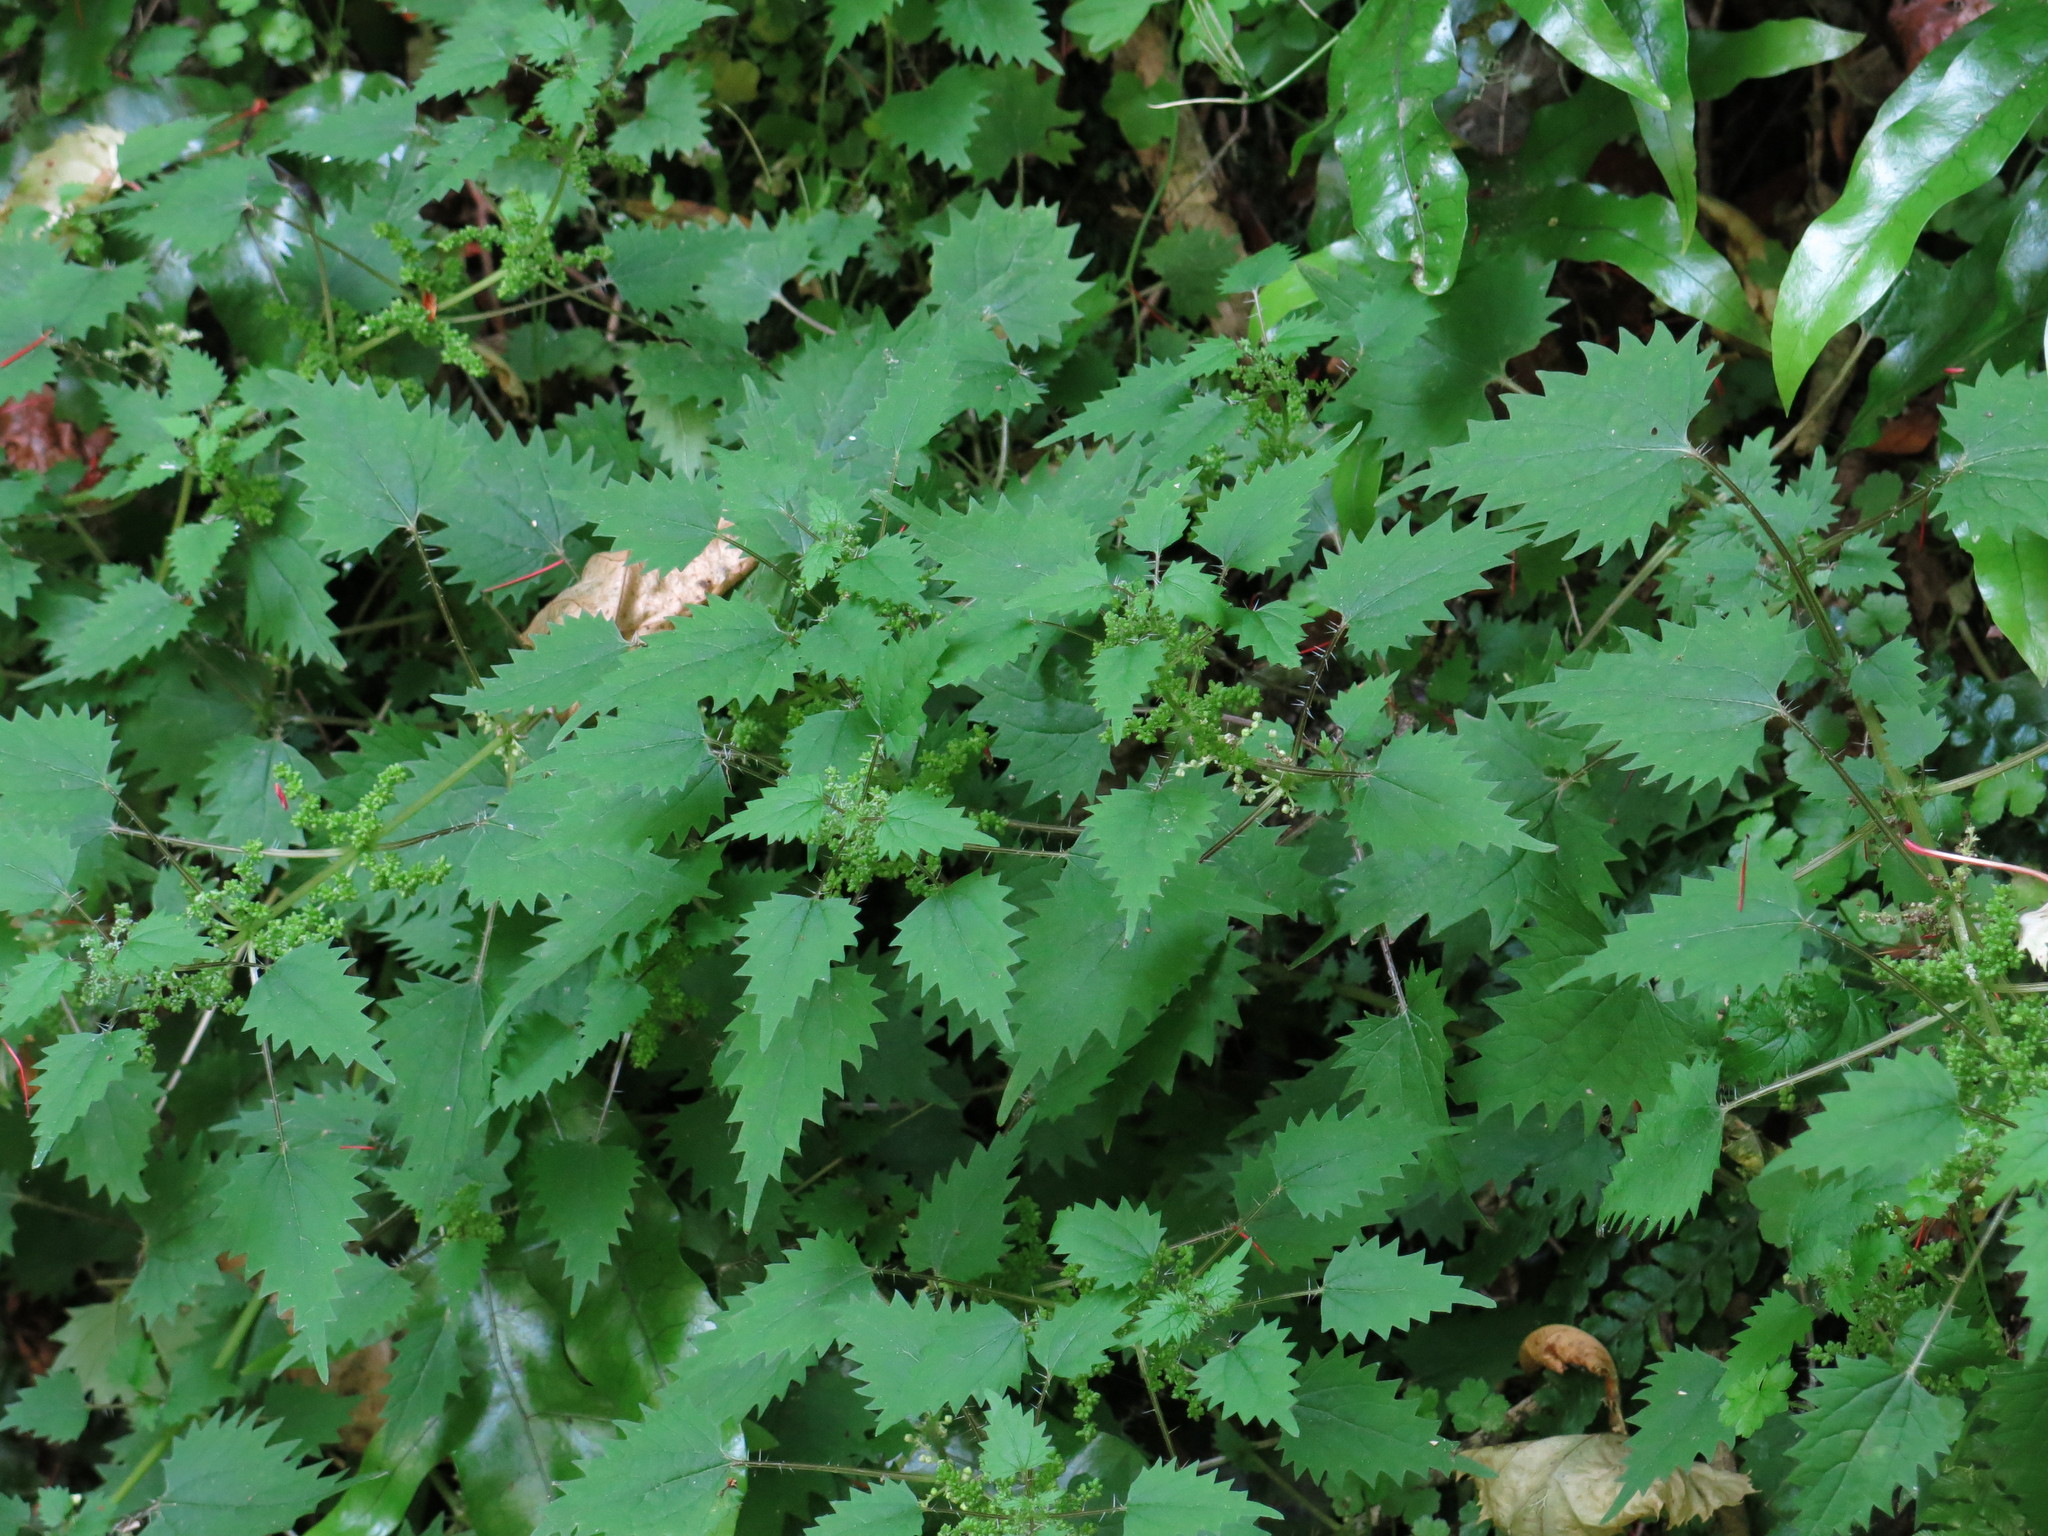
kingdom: Plantae
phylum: Tracheophyta
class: Magnoliopsida
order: Rosales
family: Urticaceae
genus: Urtica
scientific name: Urtica sykesii
